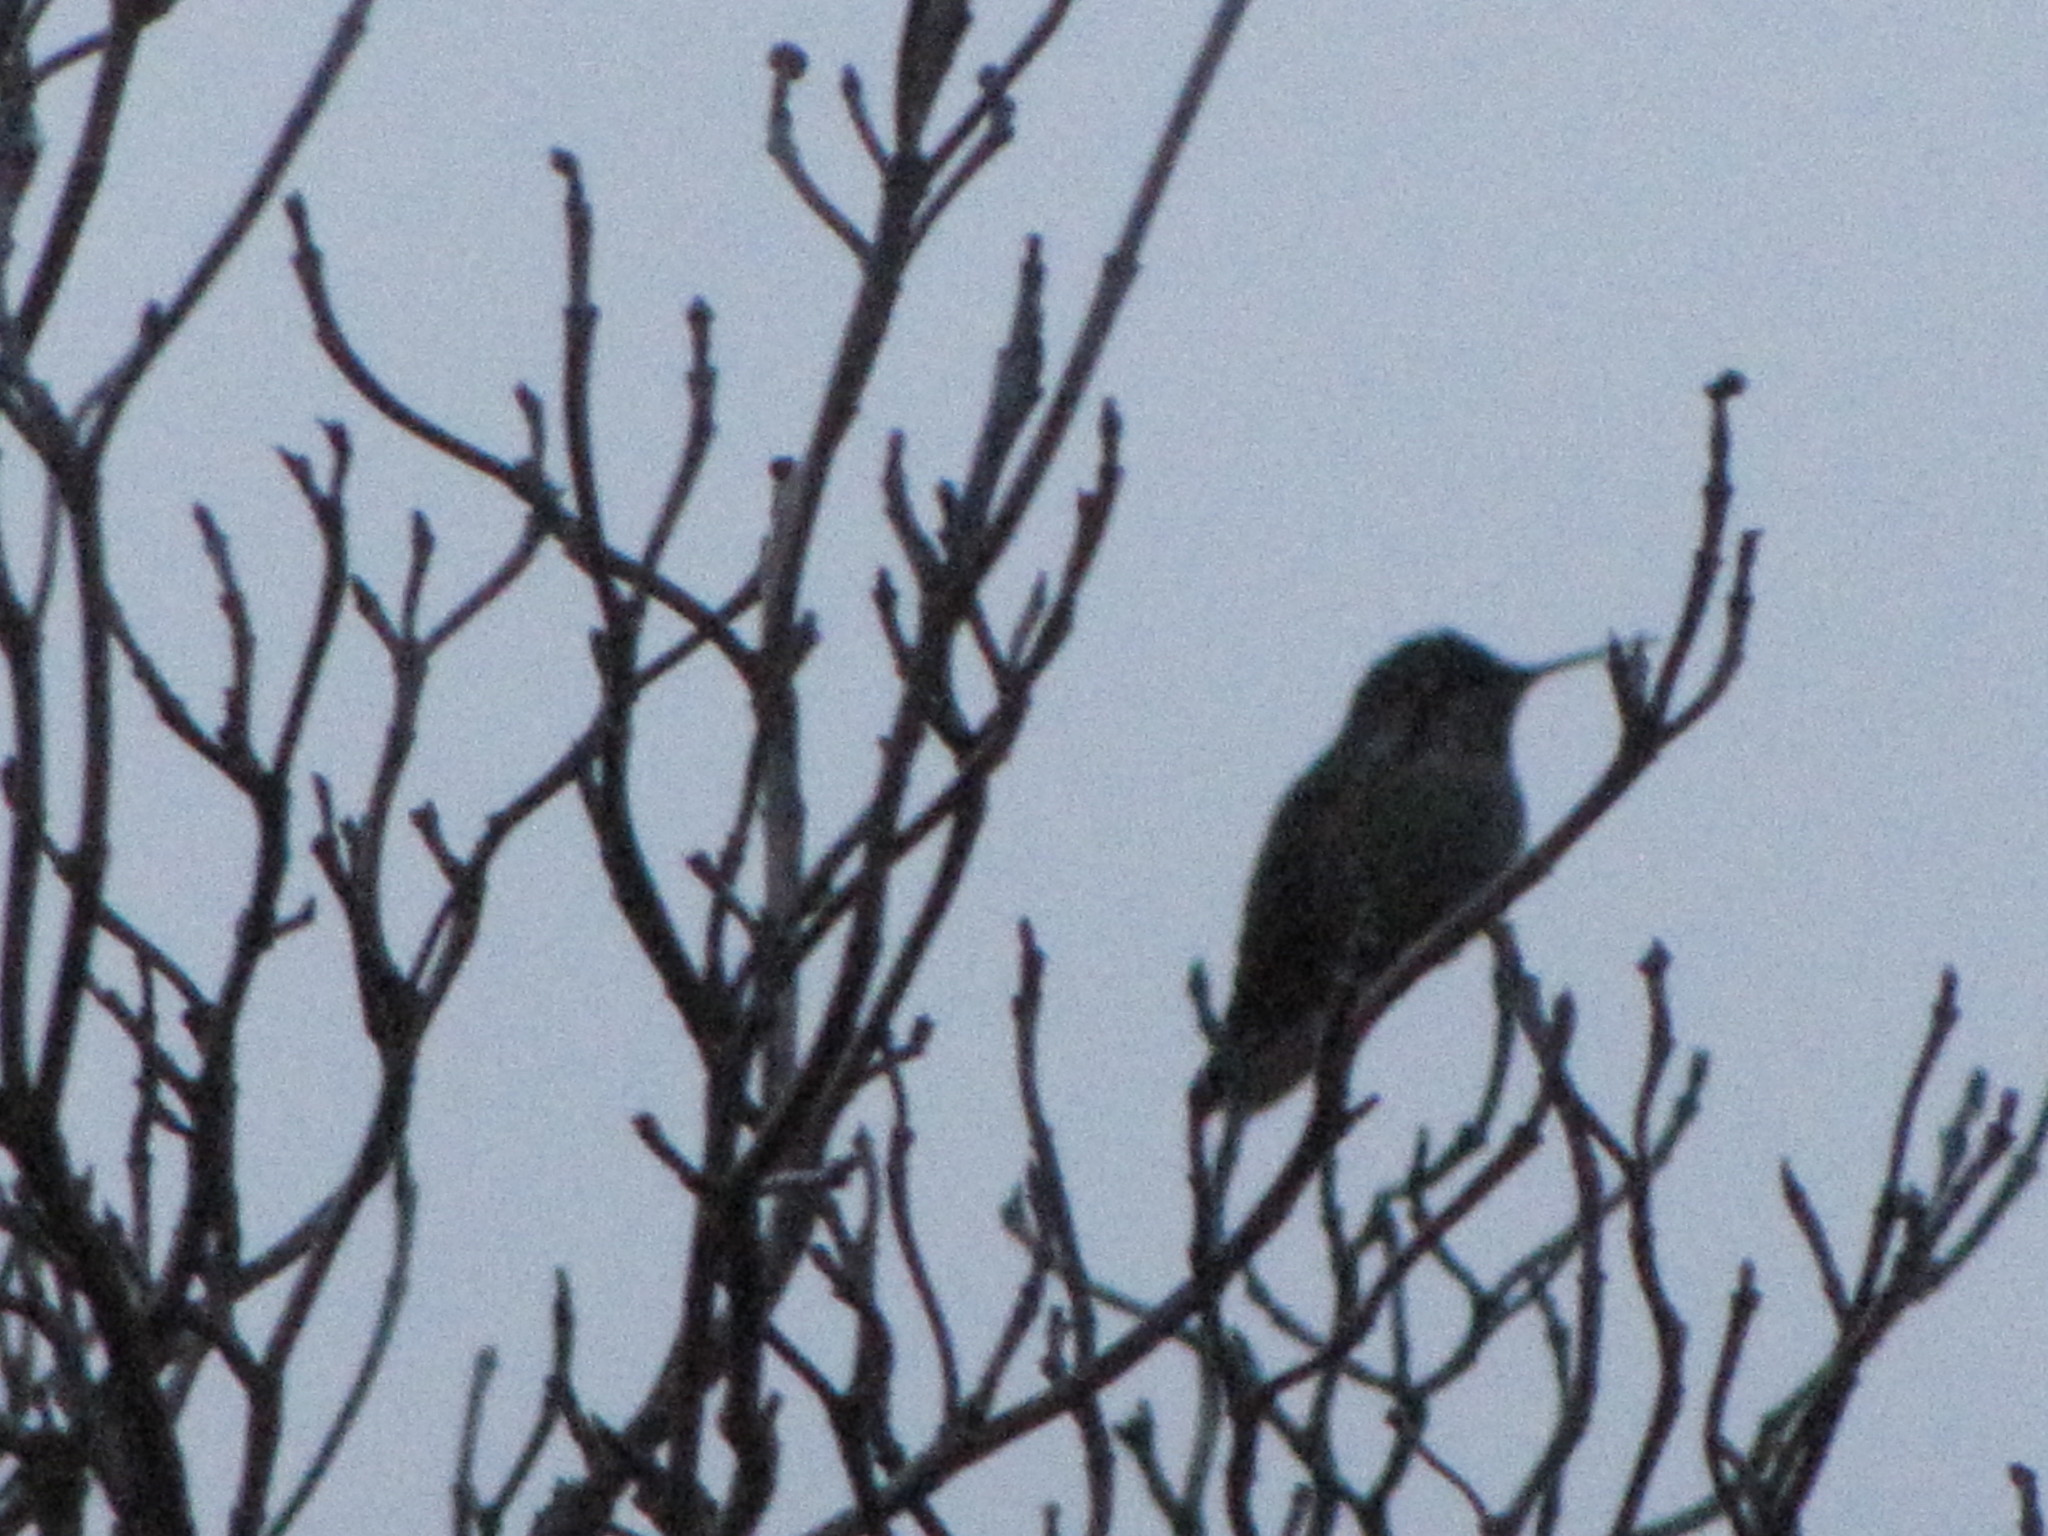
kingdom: Animalia
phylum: Chordata
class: Aves
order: Apodiformes
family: Trochilidae
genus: Calypte
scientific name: Calypte anna
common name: Anna's hummingbird
